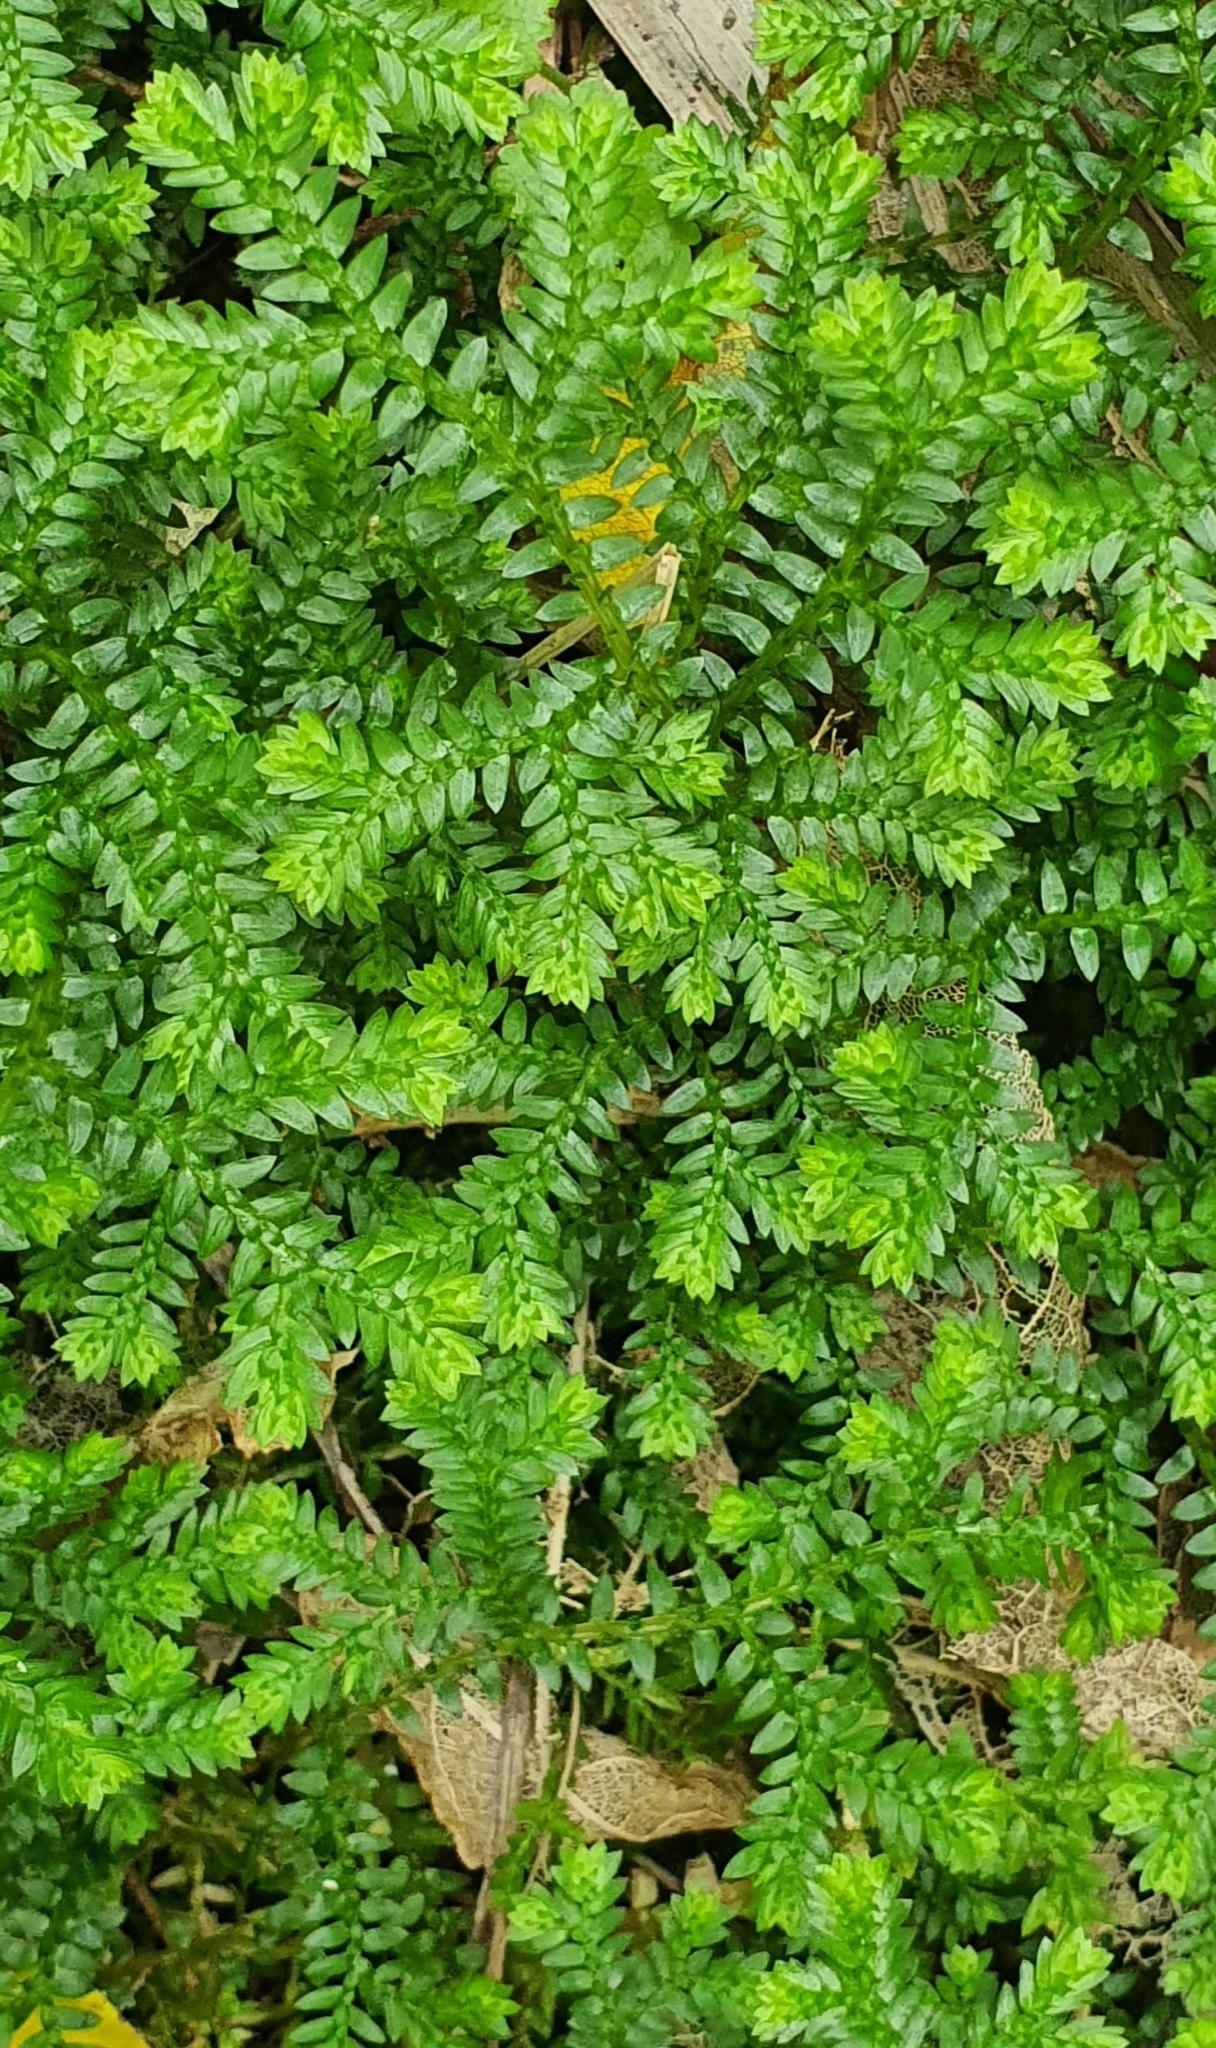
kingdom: Plantae
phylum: Tracheophyta
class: Lycopodiopsida
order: Selaginellales
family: Selaginellaceae
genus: Selaginella
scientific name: Selaginella kraussiana
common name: Krauss' spikemoss
